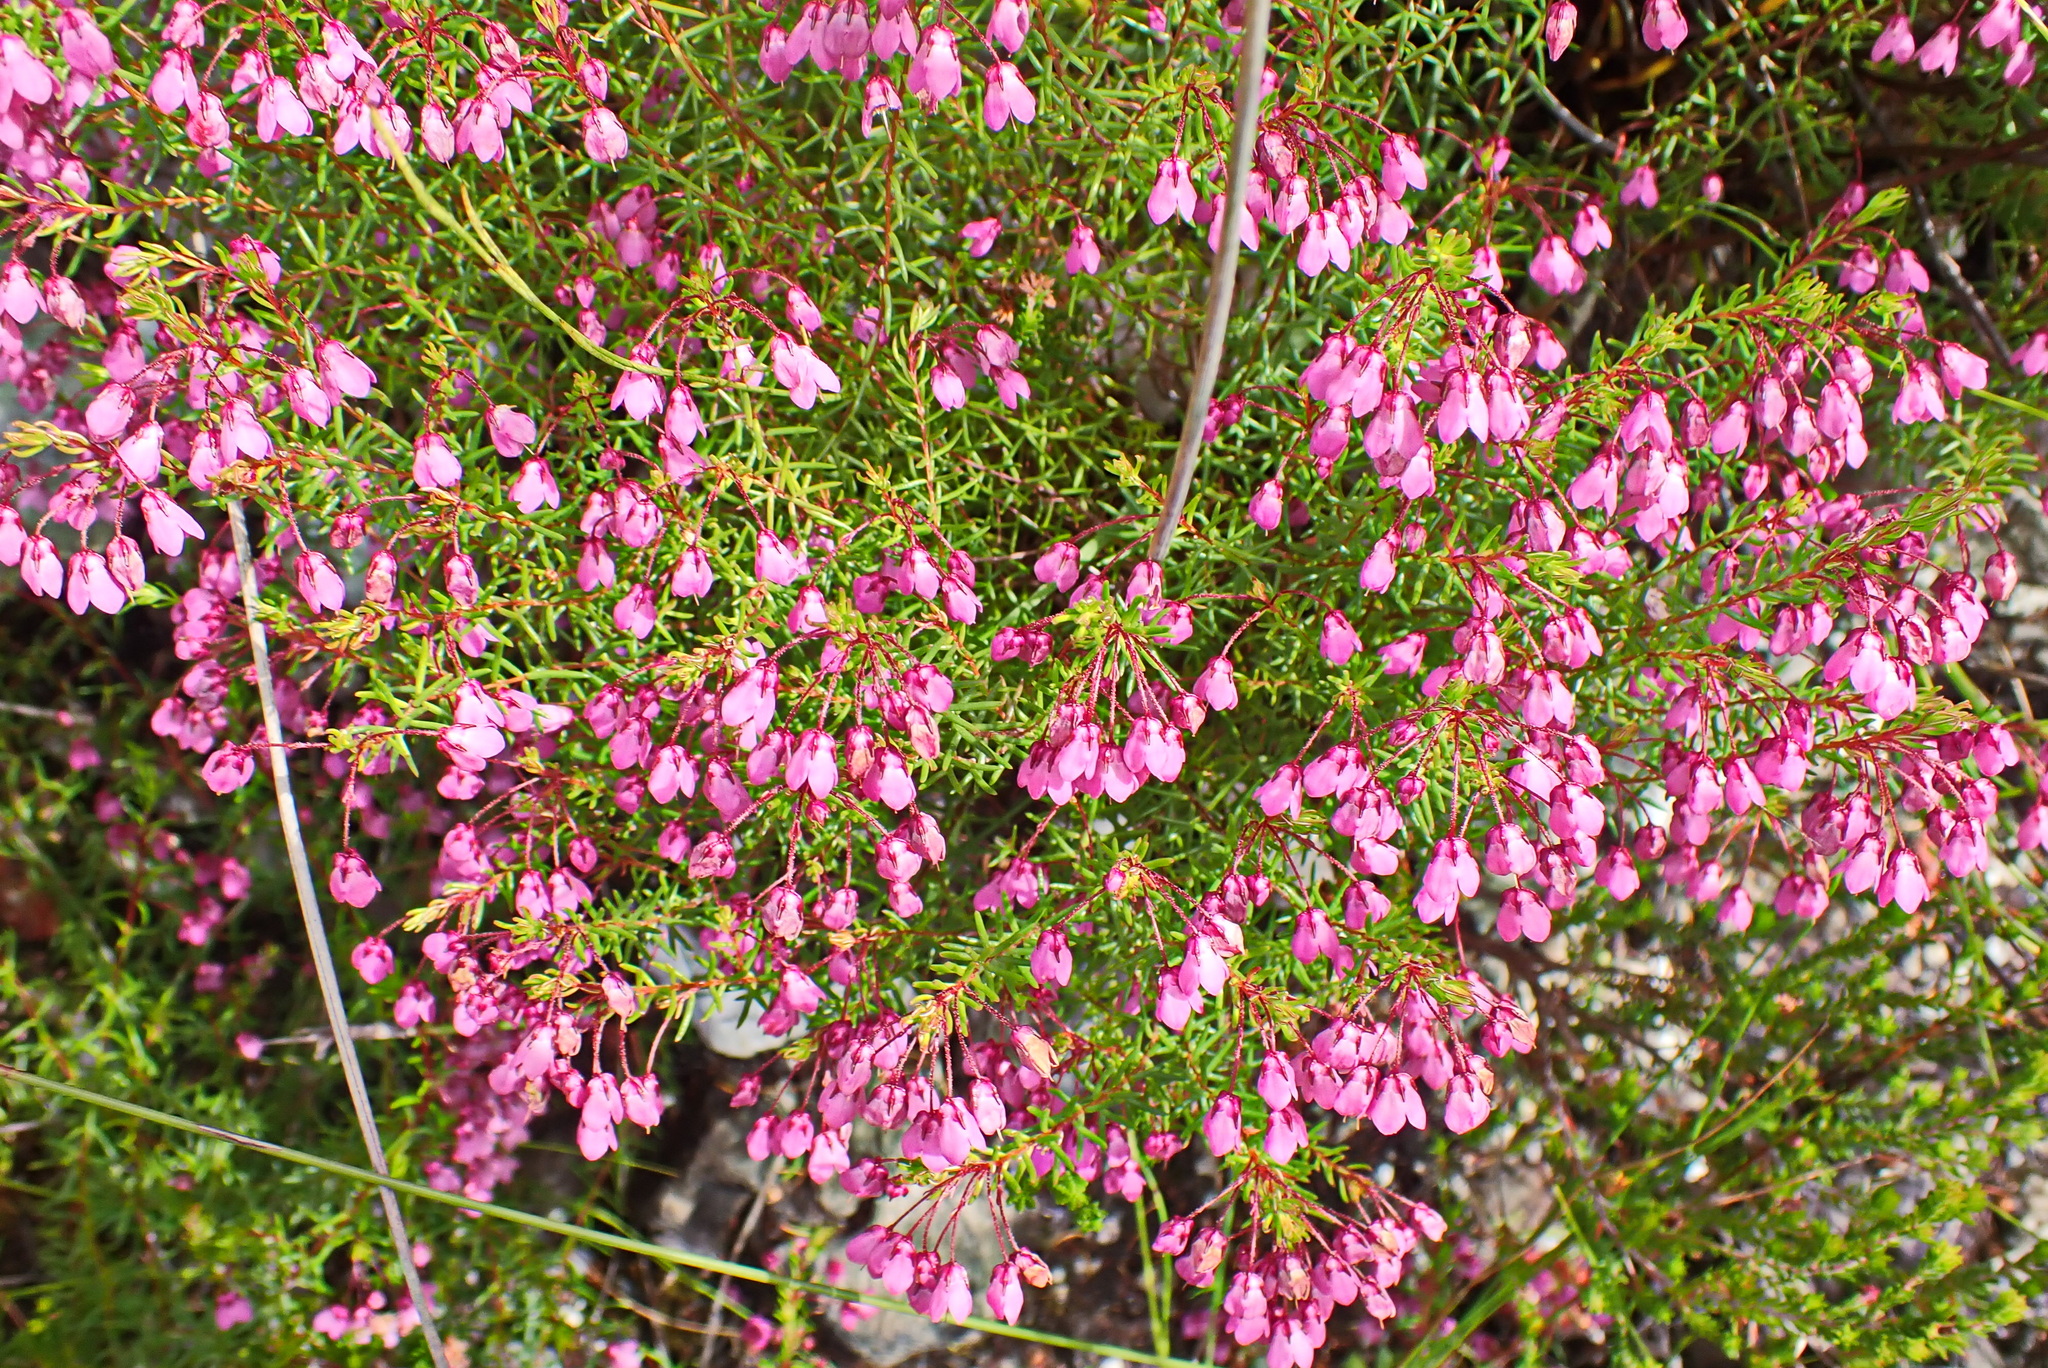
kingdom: Plantae
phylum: Tracheophyta
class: Magnoliopsida
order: Ericales
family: Ericaceae
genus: Erica
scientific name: Erica tetrathecoides
